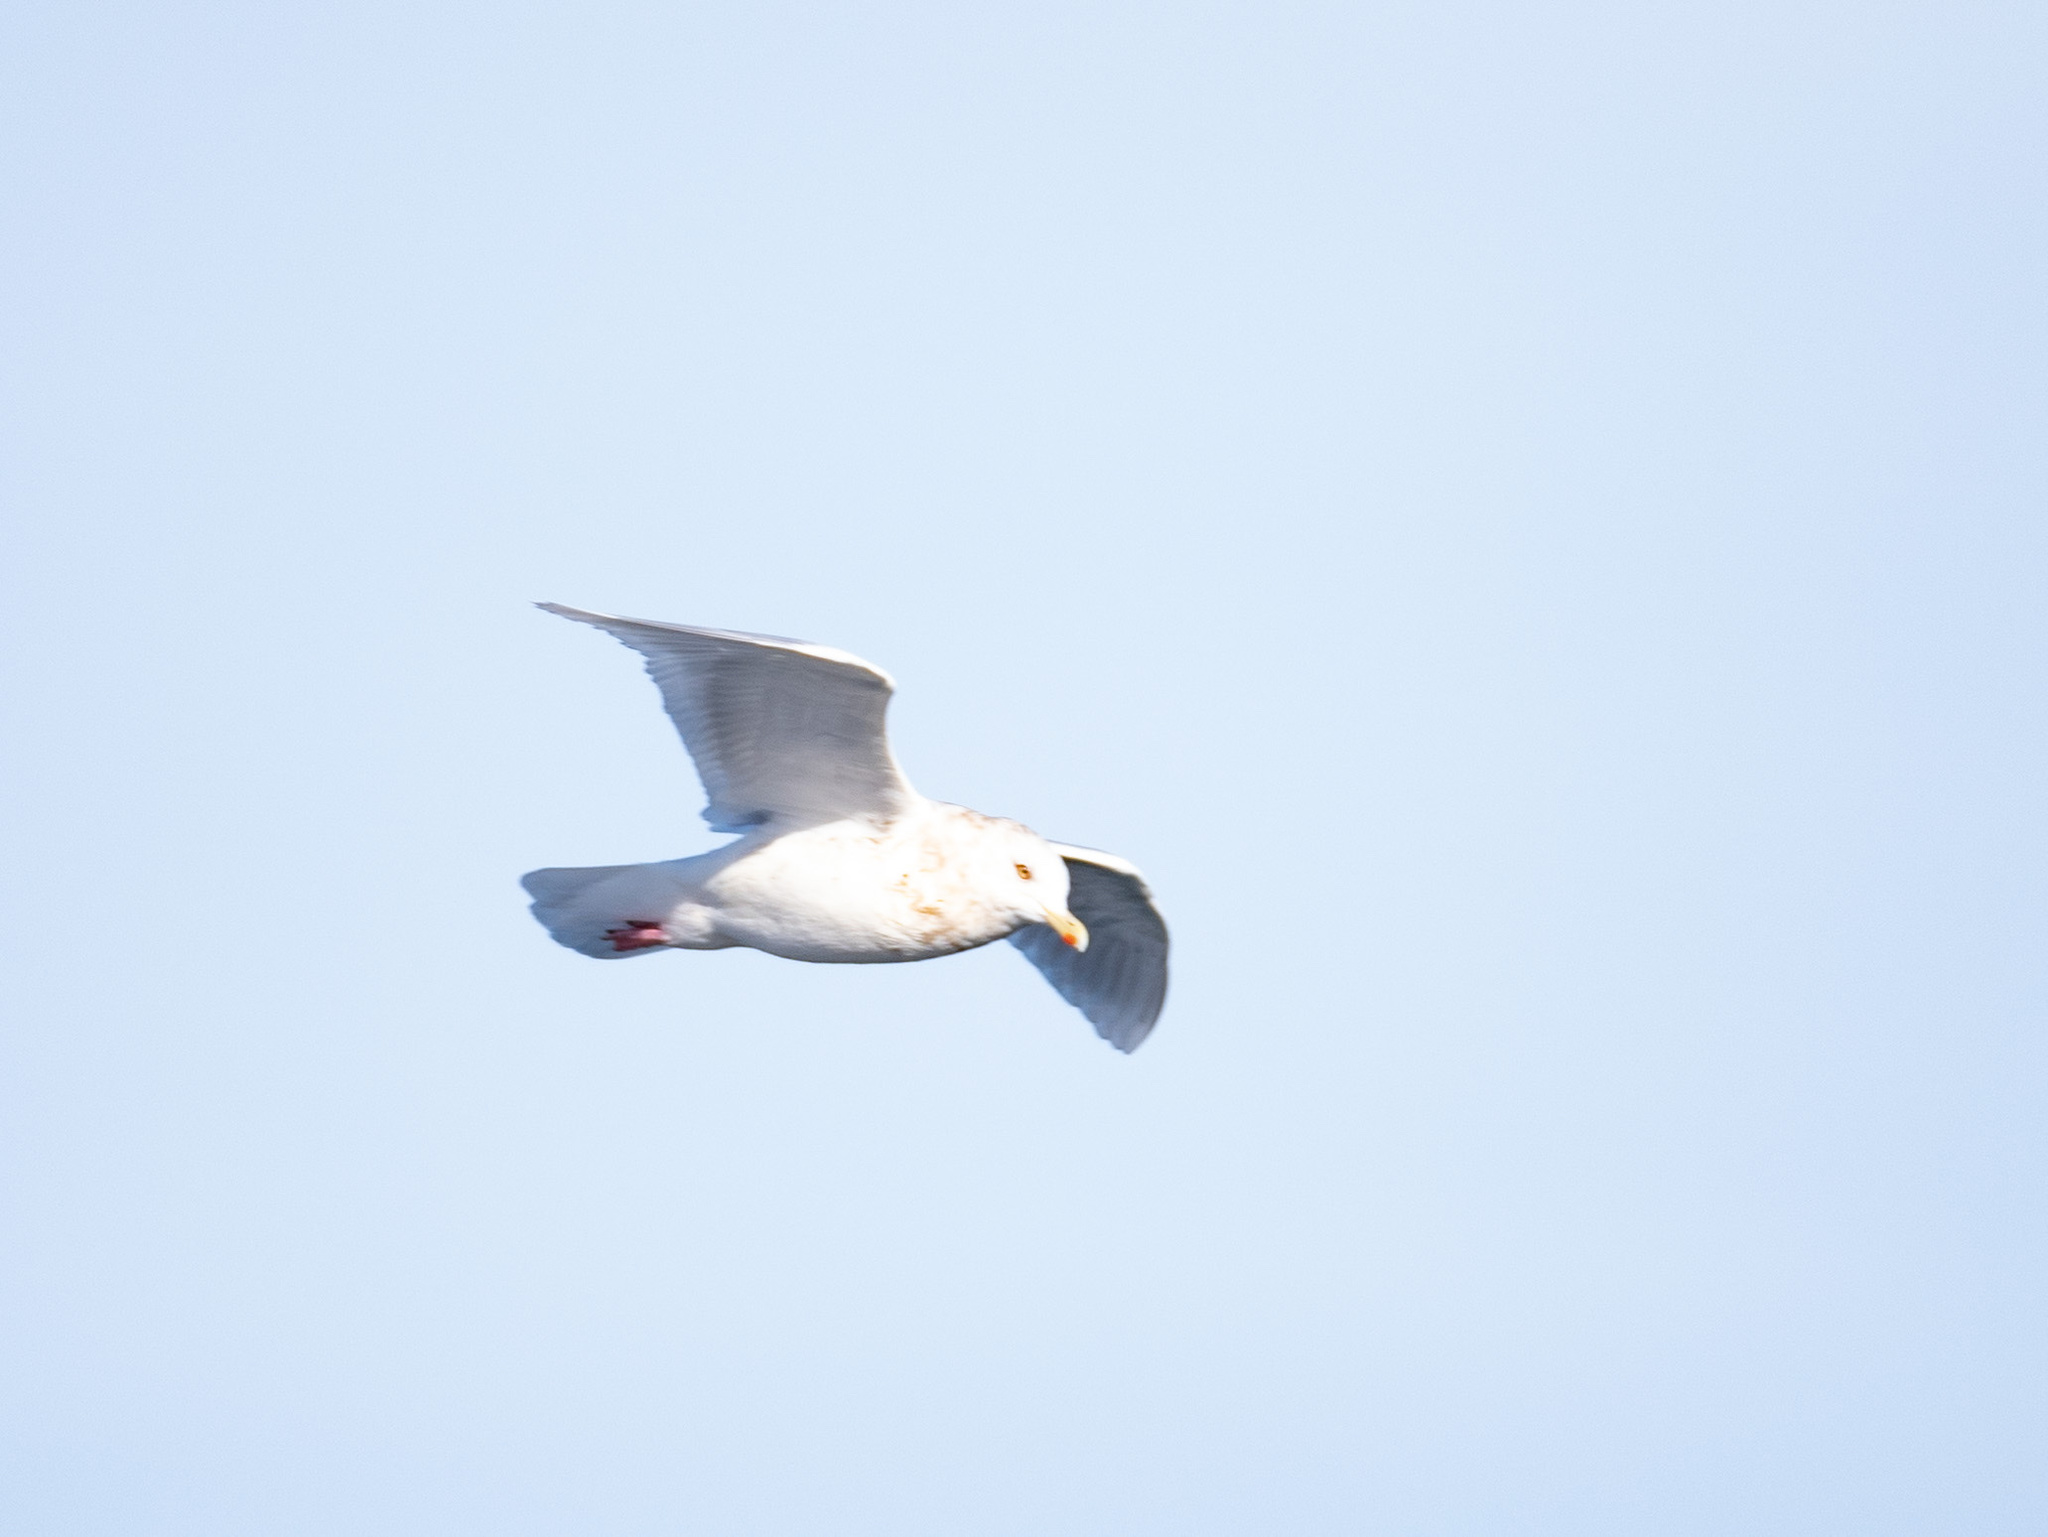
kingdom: Animalia
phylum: Chordata
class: Aves
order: Charadriiformes
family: Laridae
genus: Larus
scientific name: Larus glaucoides
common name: Iceland gull
